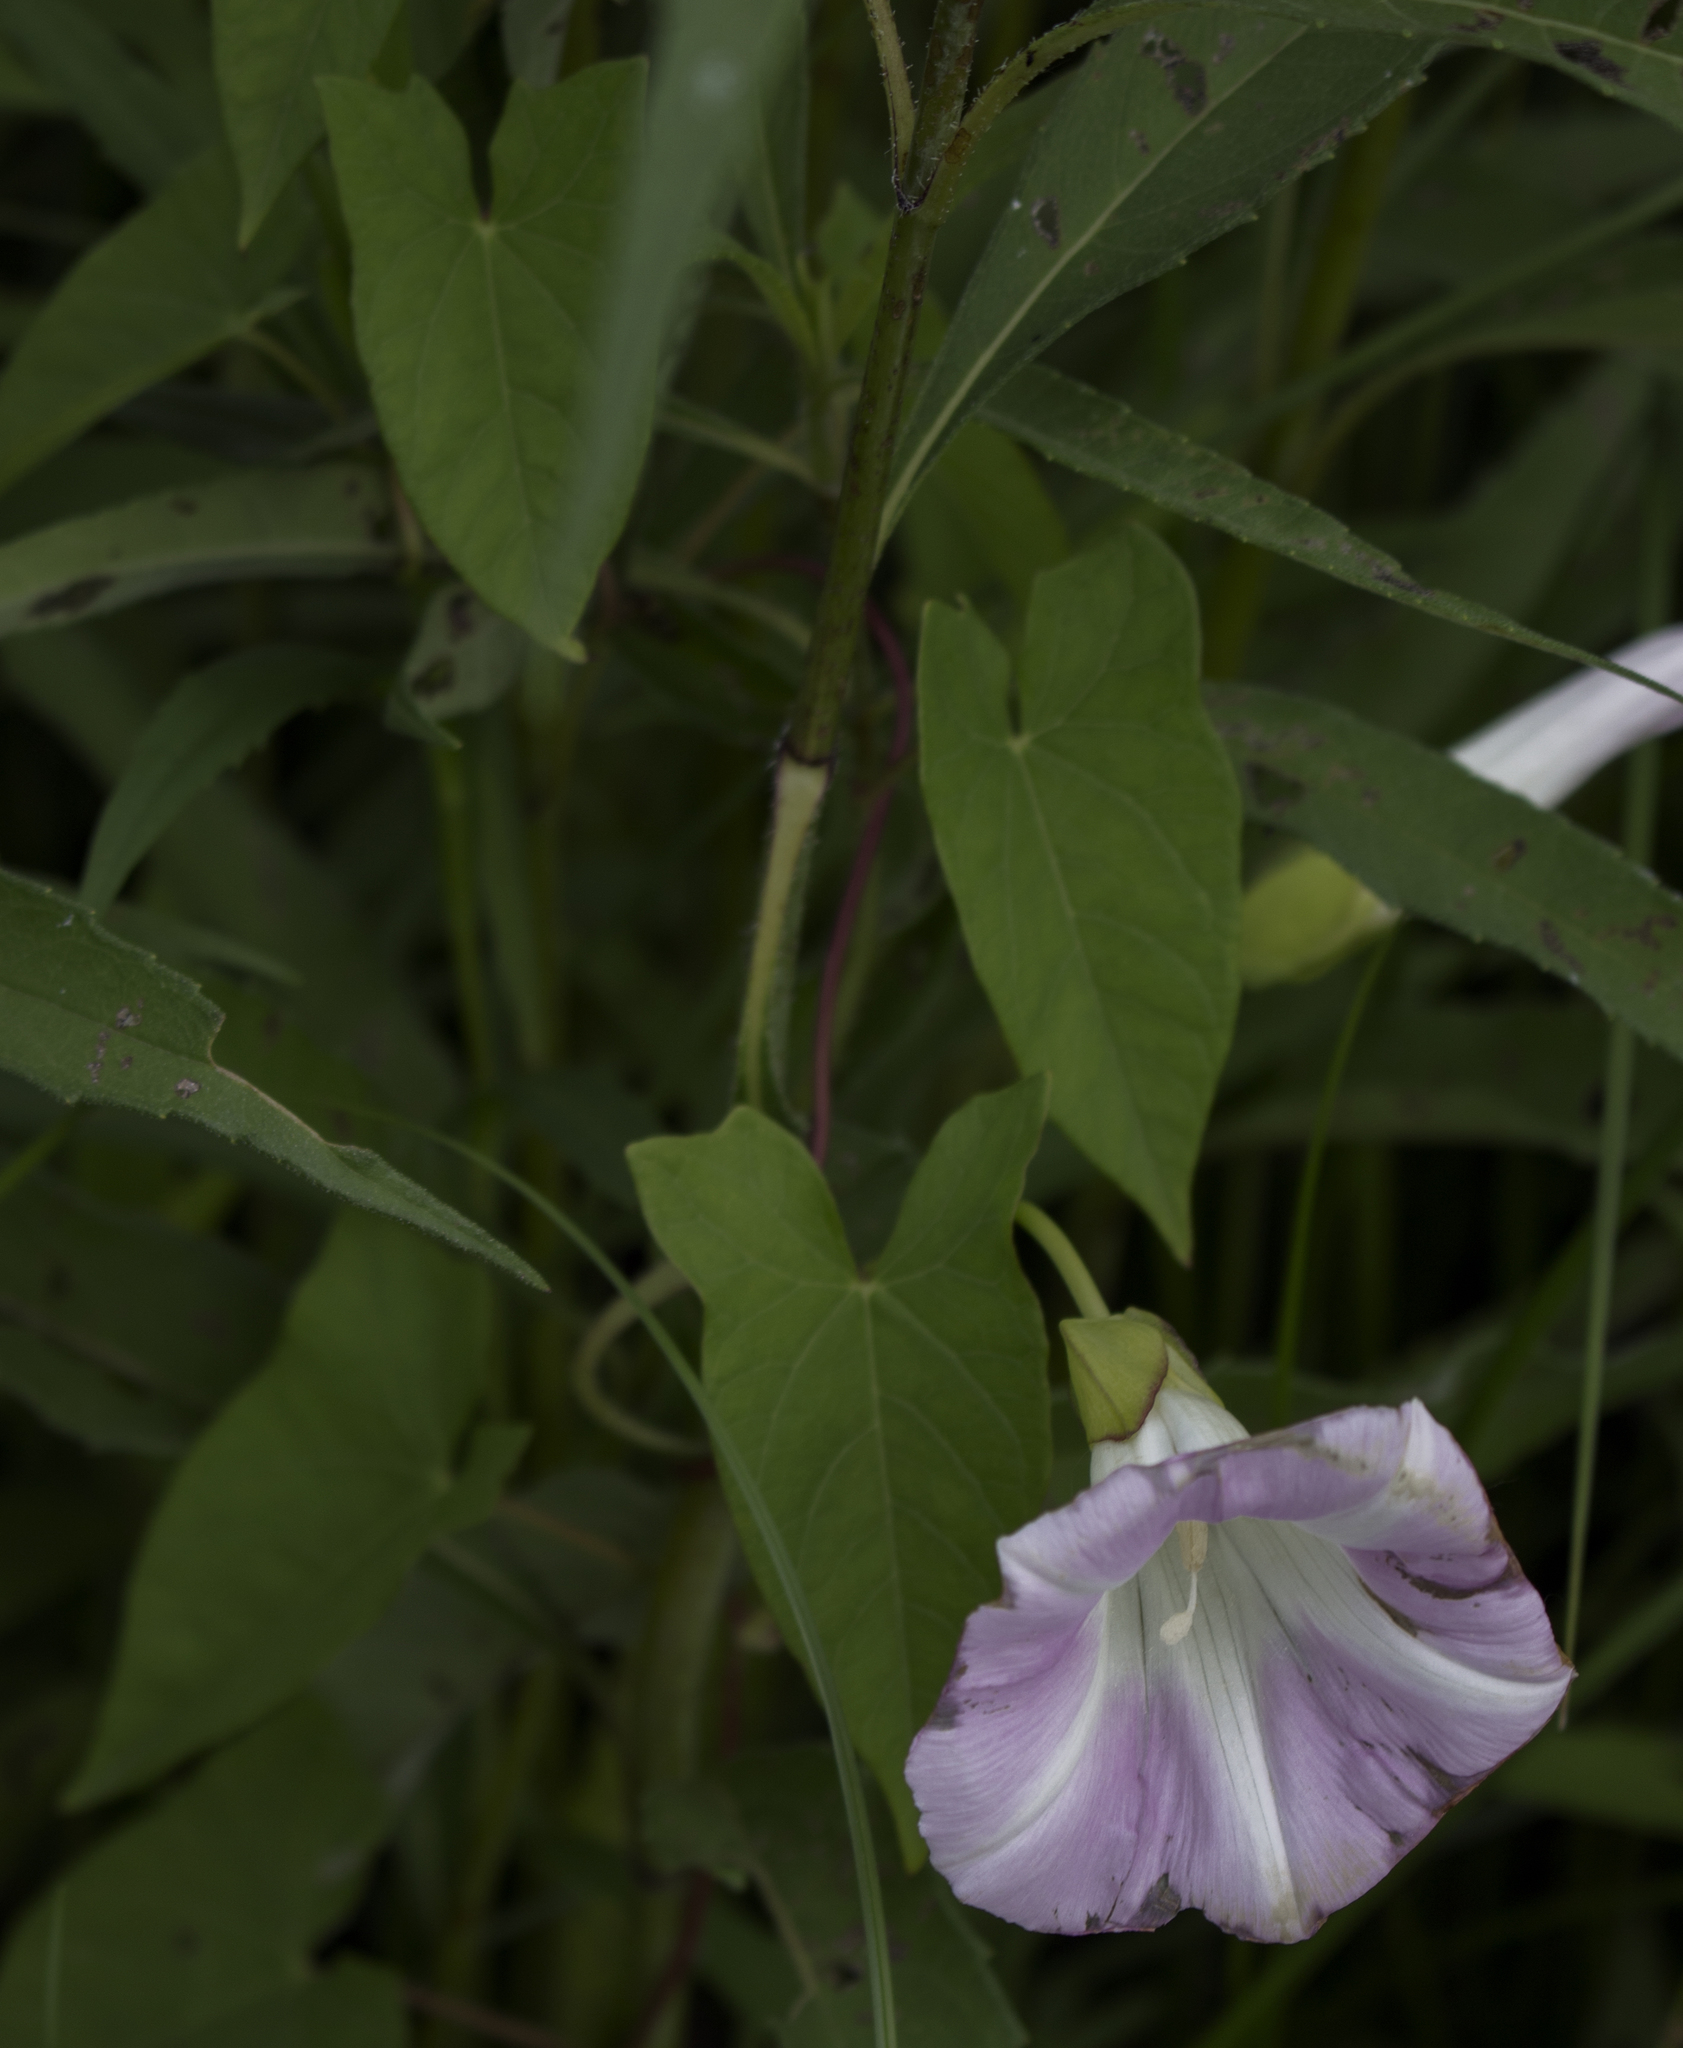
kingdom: Plantae
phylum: Tracheophyta
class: Magnoliopsida
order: Solanales
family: Convolvulaceae
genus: Calystegia
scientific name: Calystegia sepium
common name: Hedge bindweed
